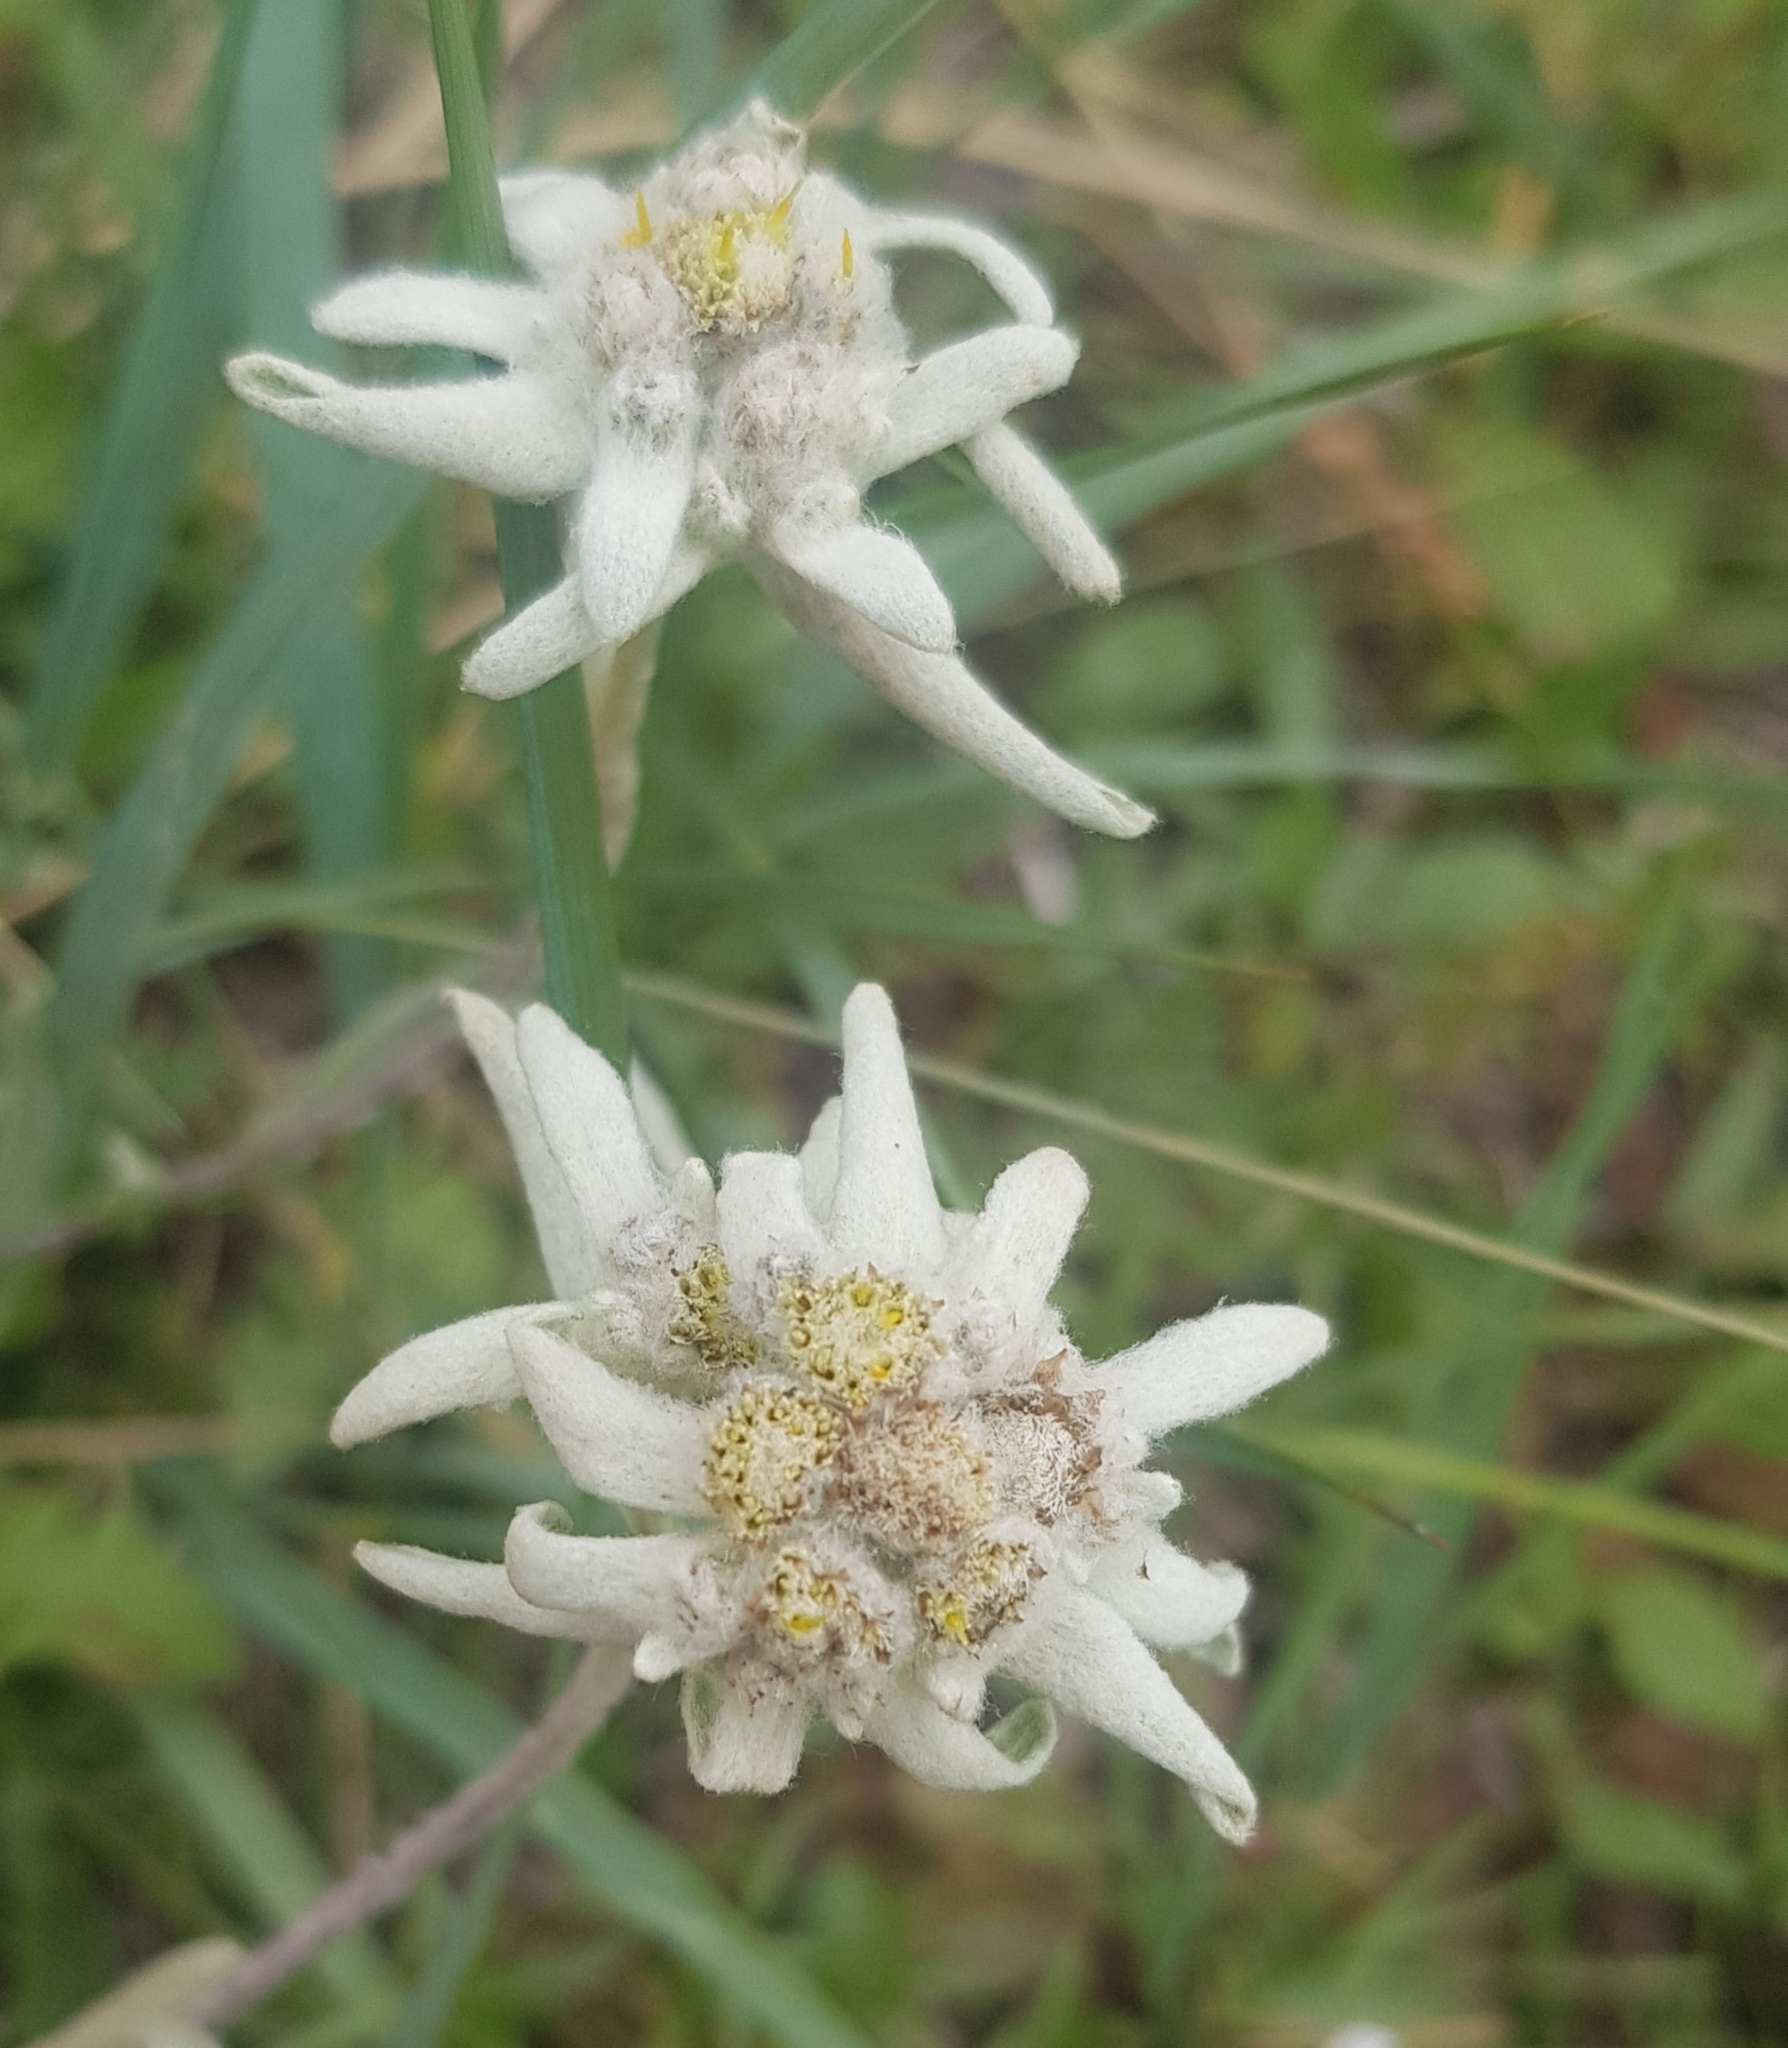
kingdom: Plantae
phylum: Tracheophyta
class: Magnoliopsida
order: Asterales
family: Asteraceae
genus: Leontopodium
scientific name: Leontopodium leontopodioides
